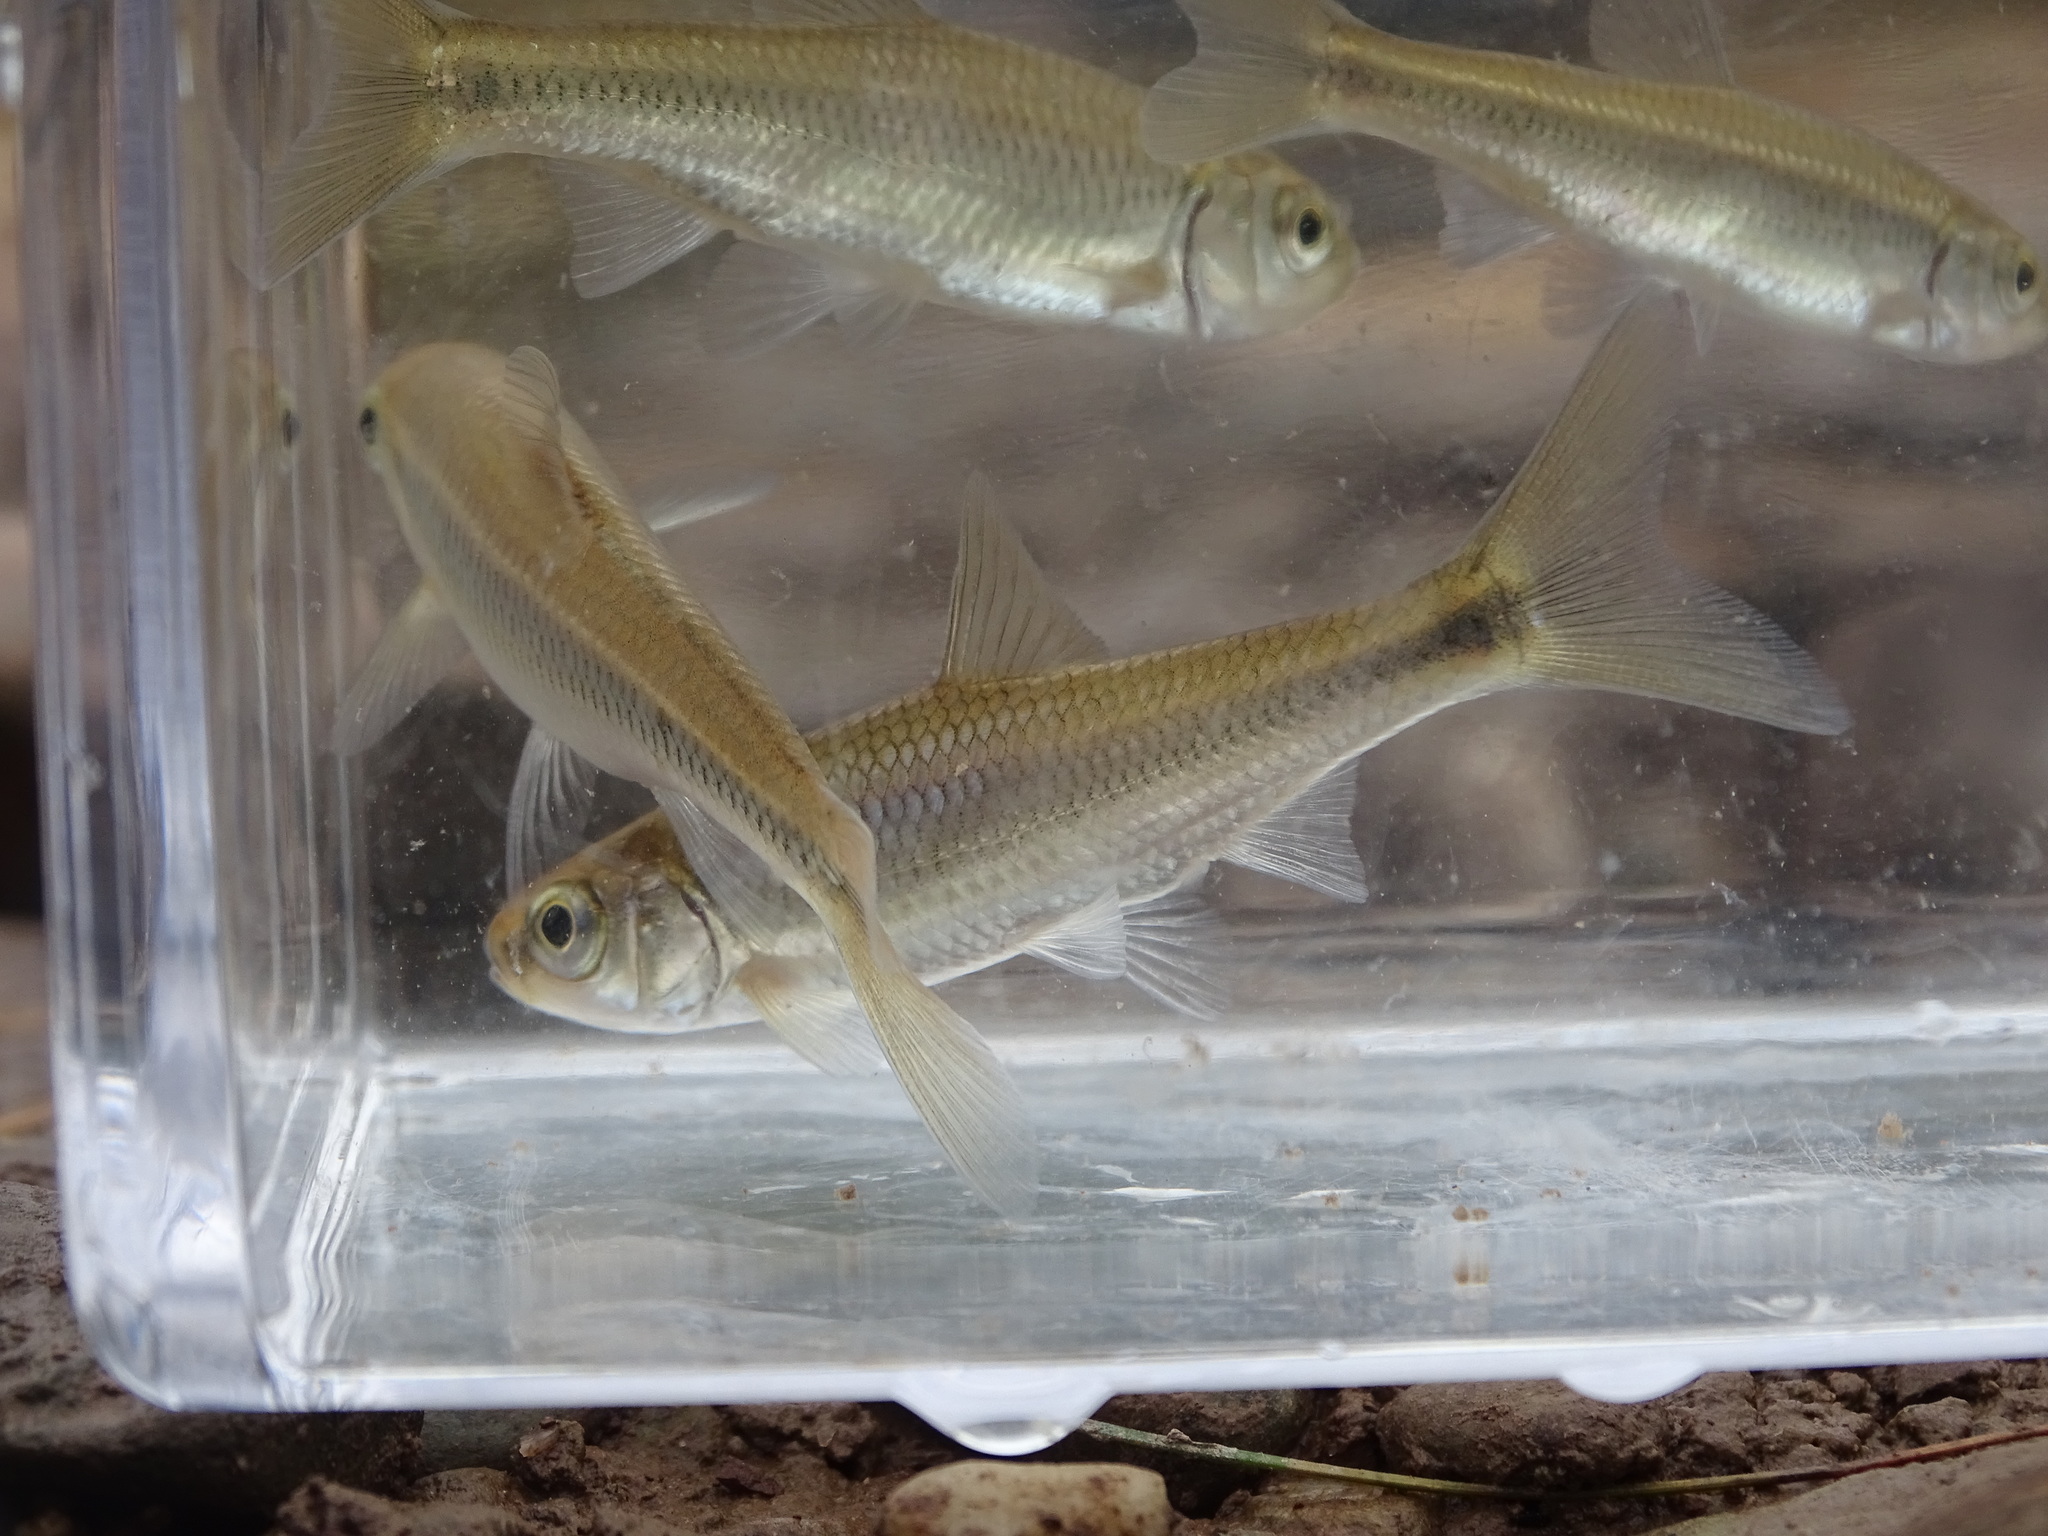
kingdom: Animalia
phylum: Chordata
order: Cypriniformes
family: Cyprinidae
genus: Luxilus
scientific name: Luxilus chrysocephalus
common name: Striped shiner
